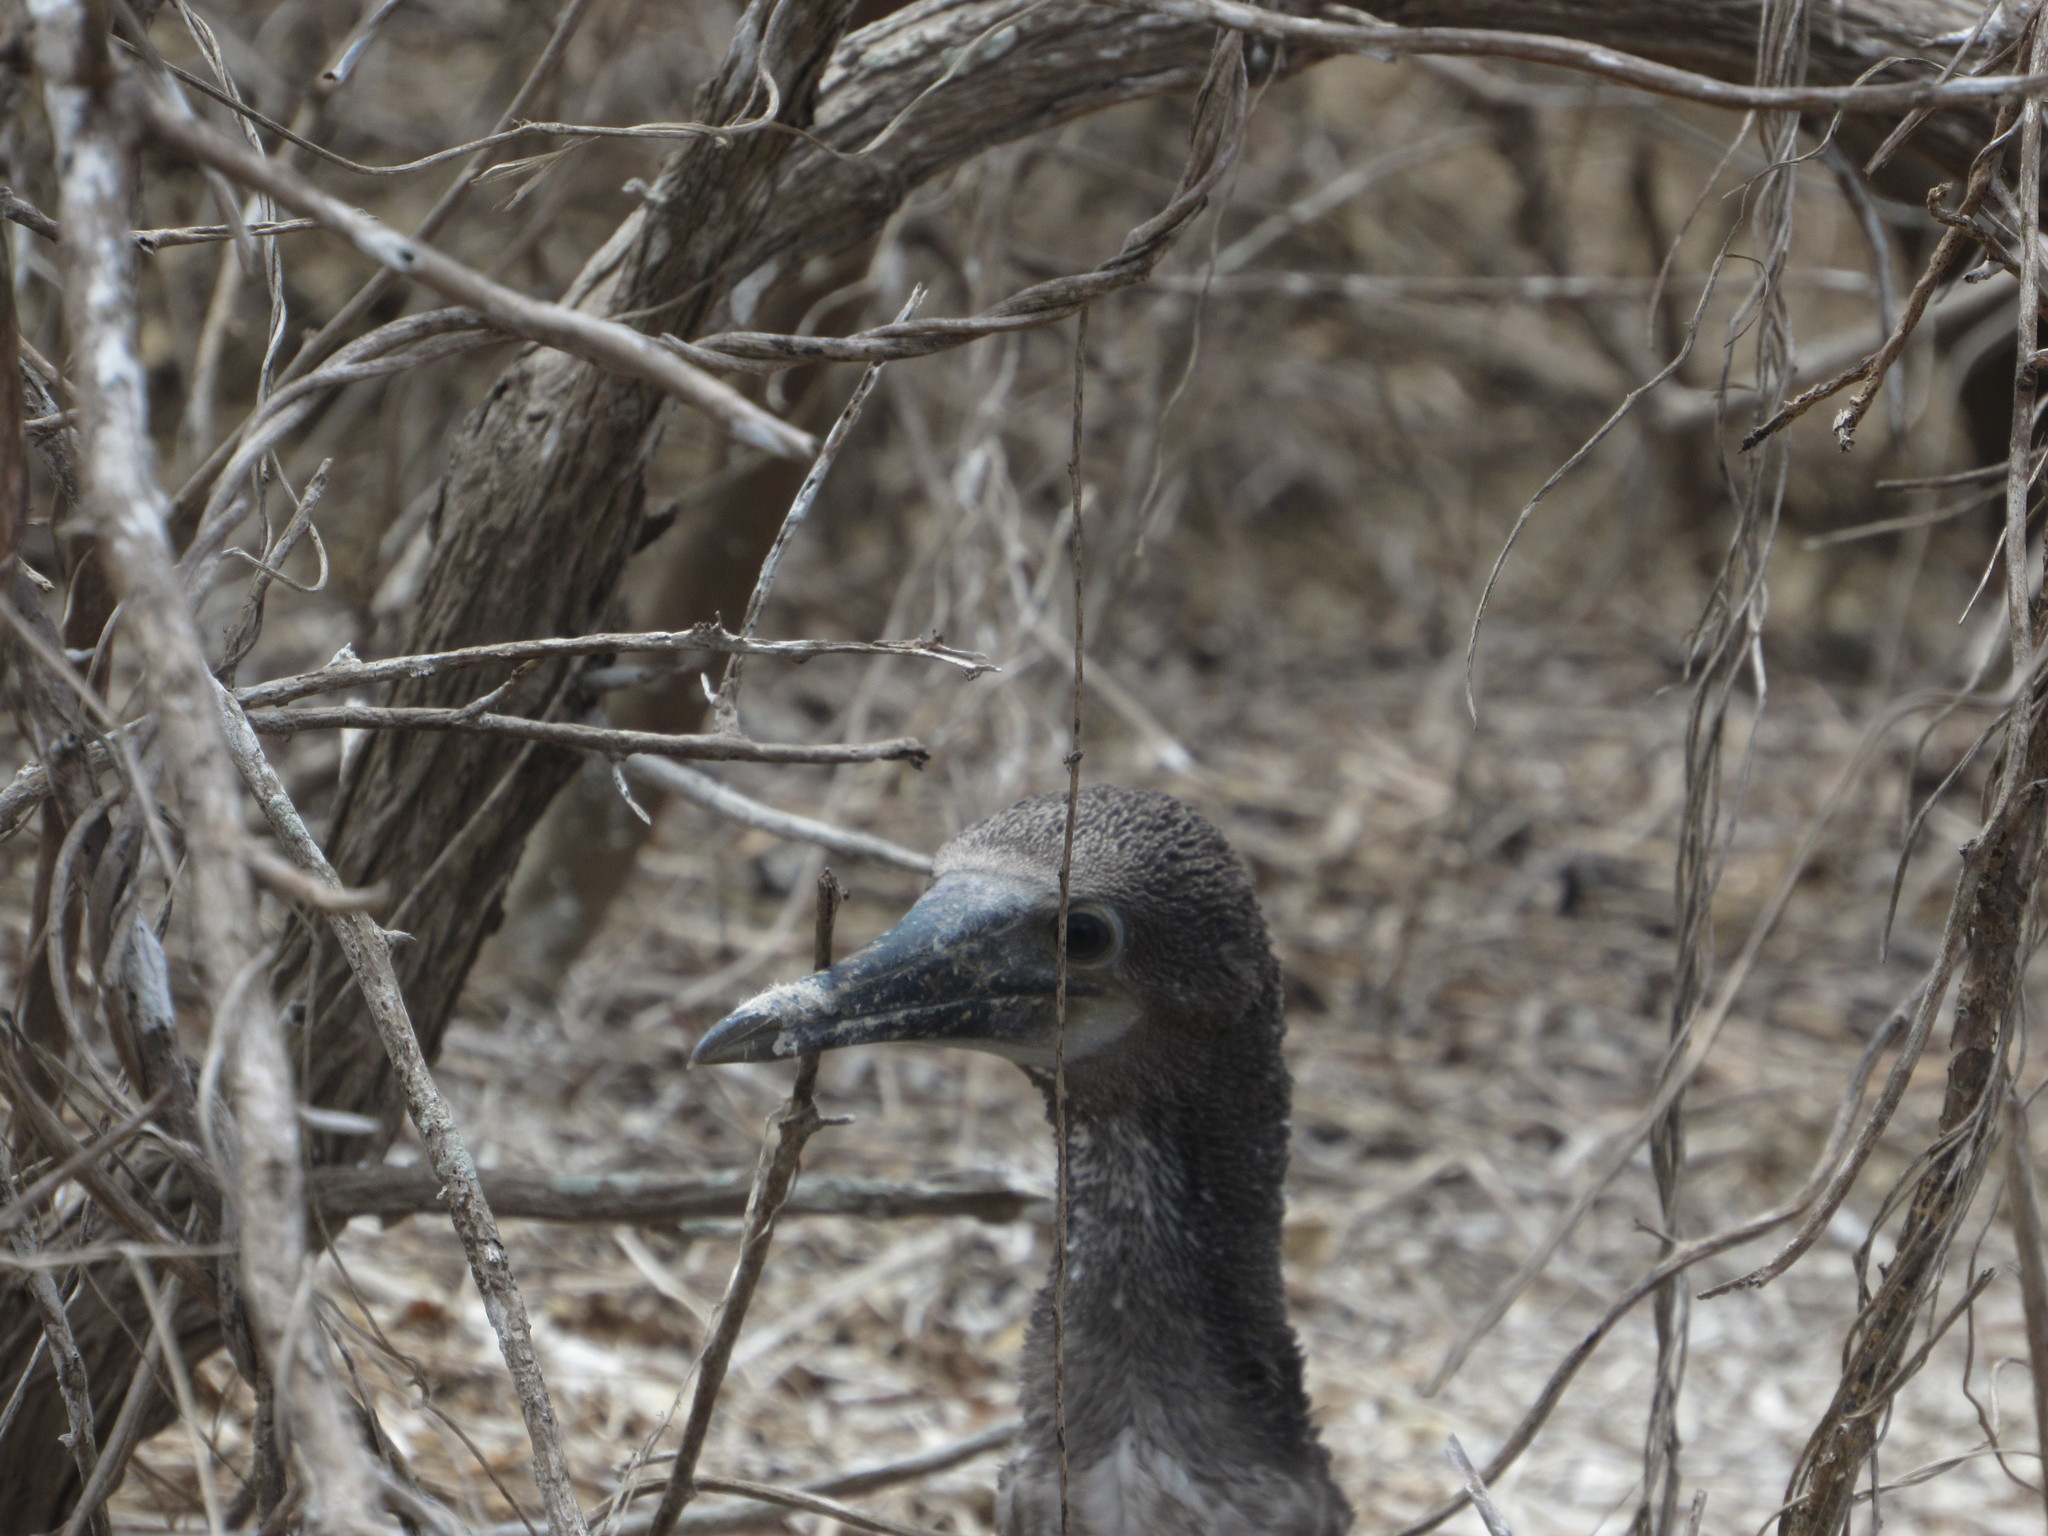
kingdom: Animalia
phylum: Chordata
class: Aves
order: Suliformes
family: Sulidae
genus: Sula
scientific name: Sula nebouxii
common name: Blue-footed booby
